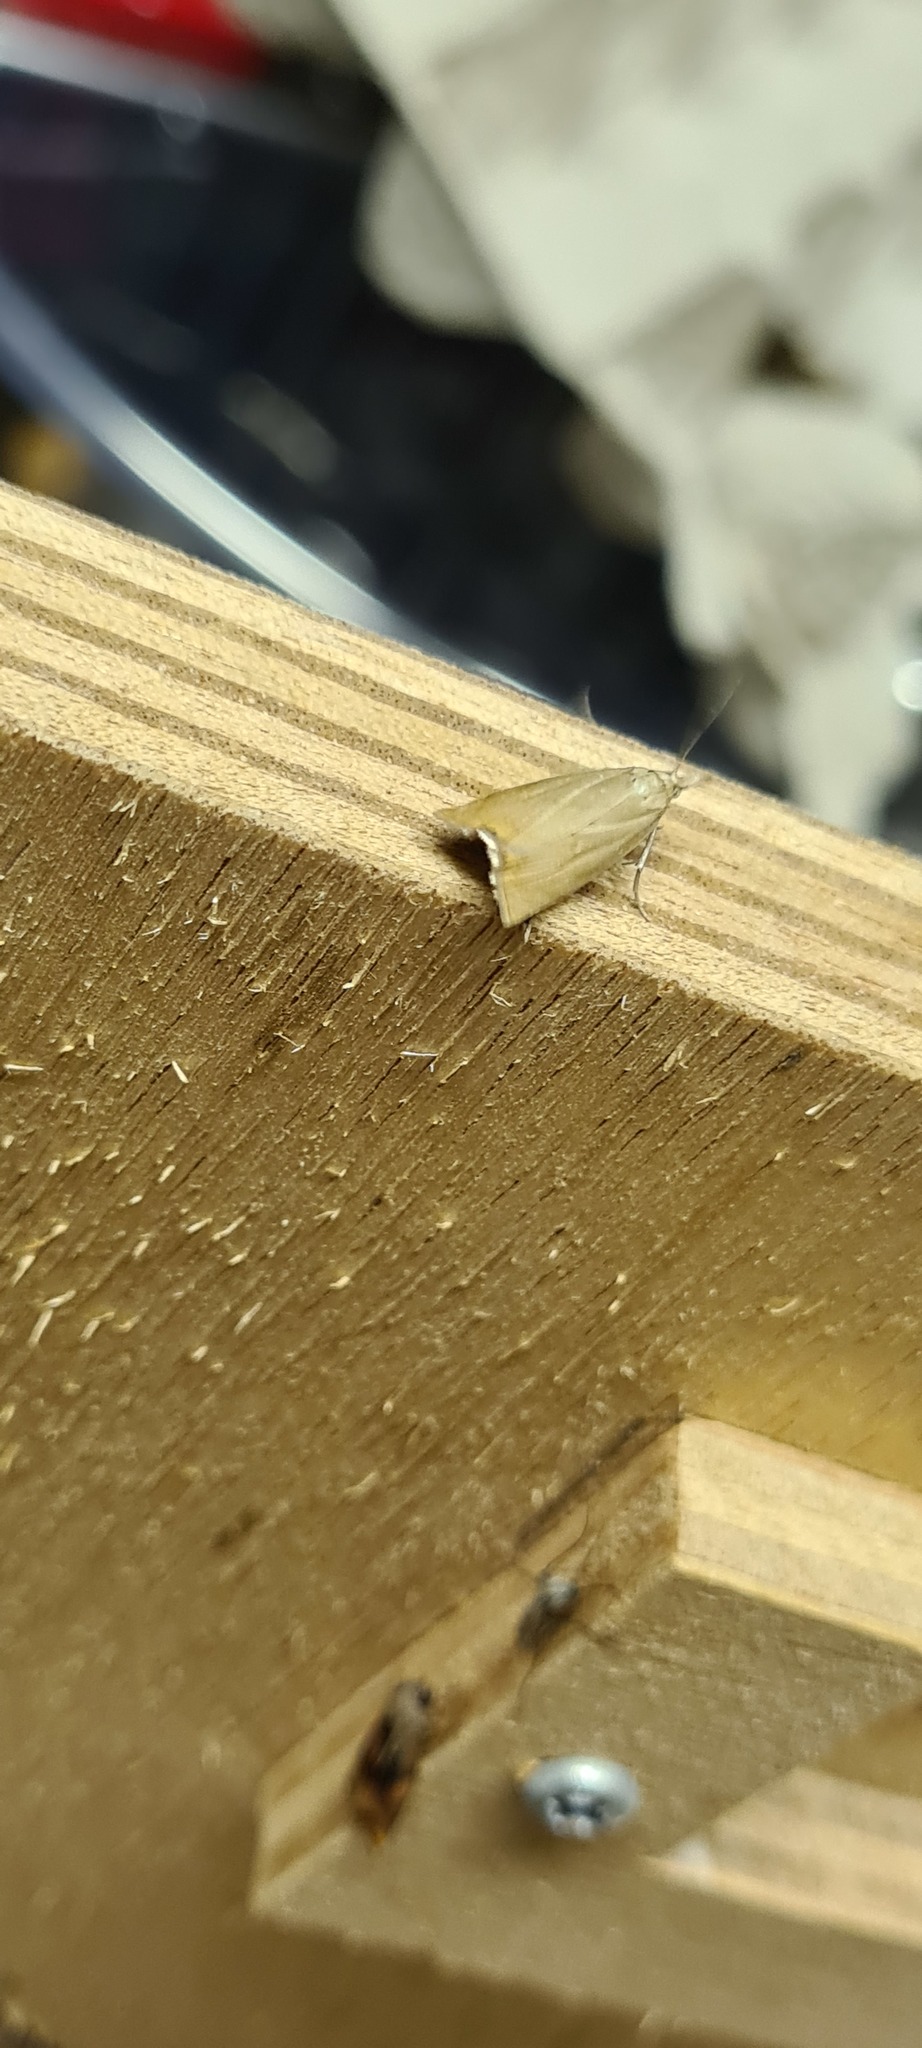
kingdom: Animalia
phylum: Arthropoda
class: Insecta
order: Lepidoptera
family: Crambidae
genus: Chrysoteuchia
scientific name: Chrysoteuchia culmella
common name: Garden grass-veneer
